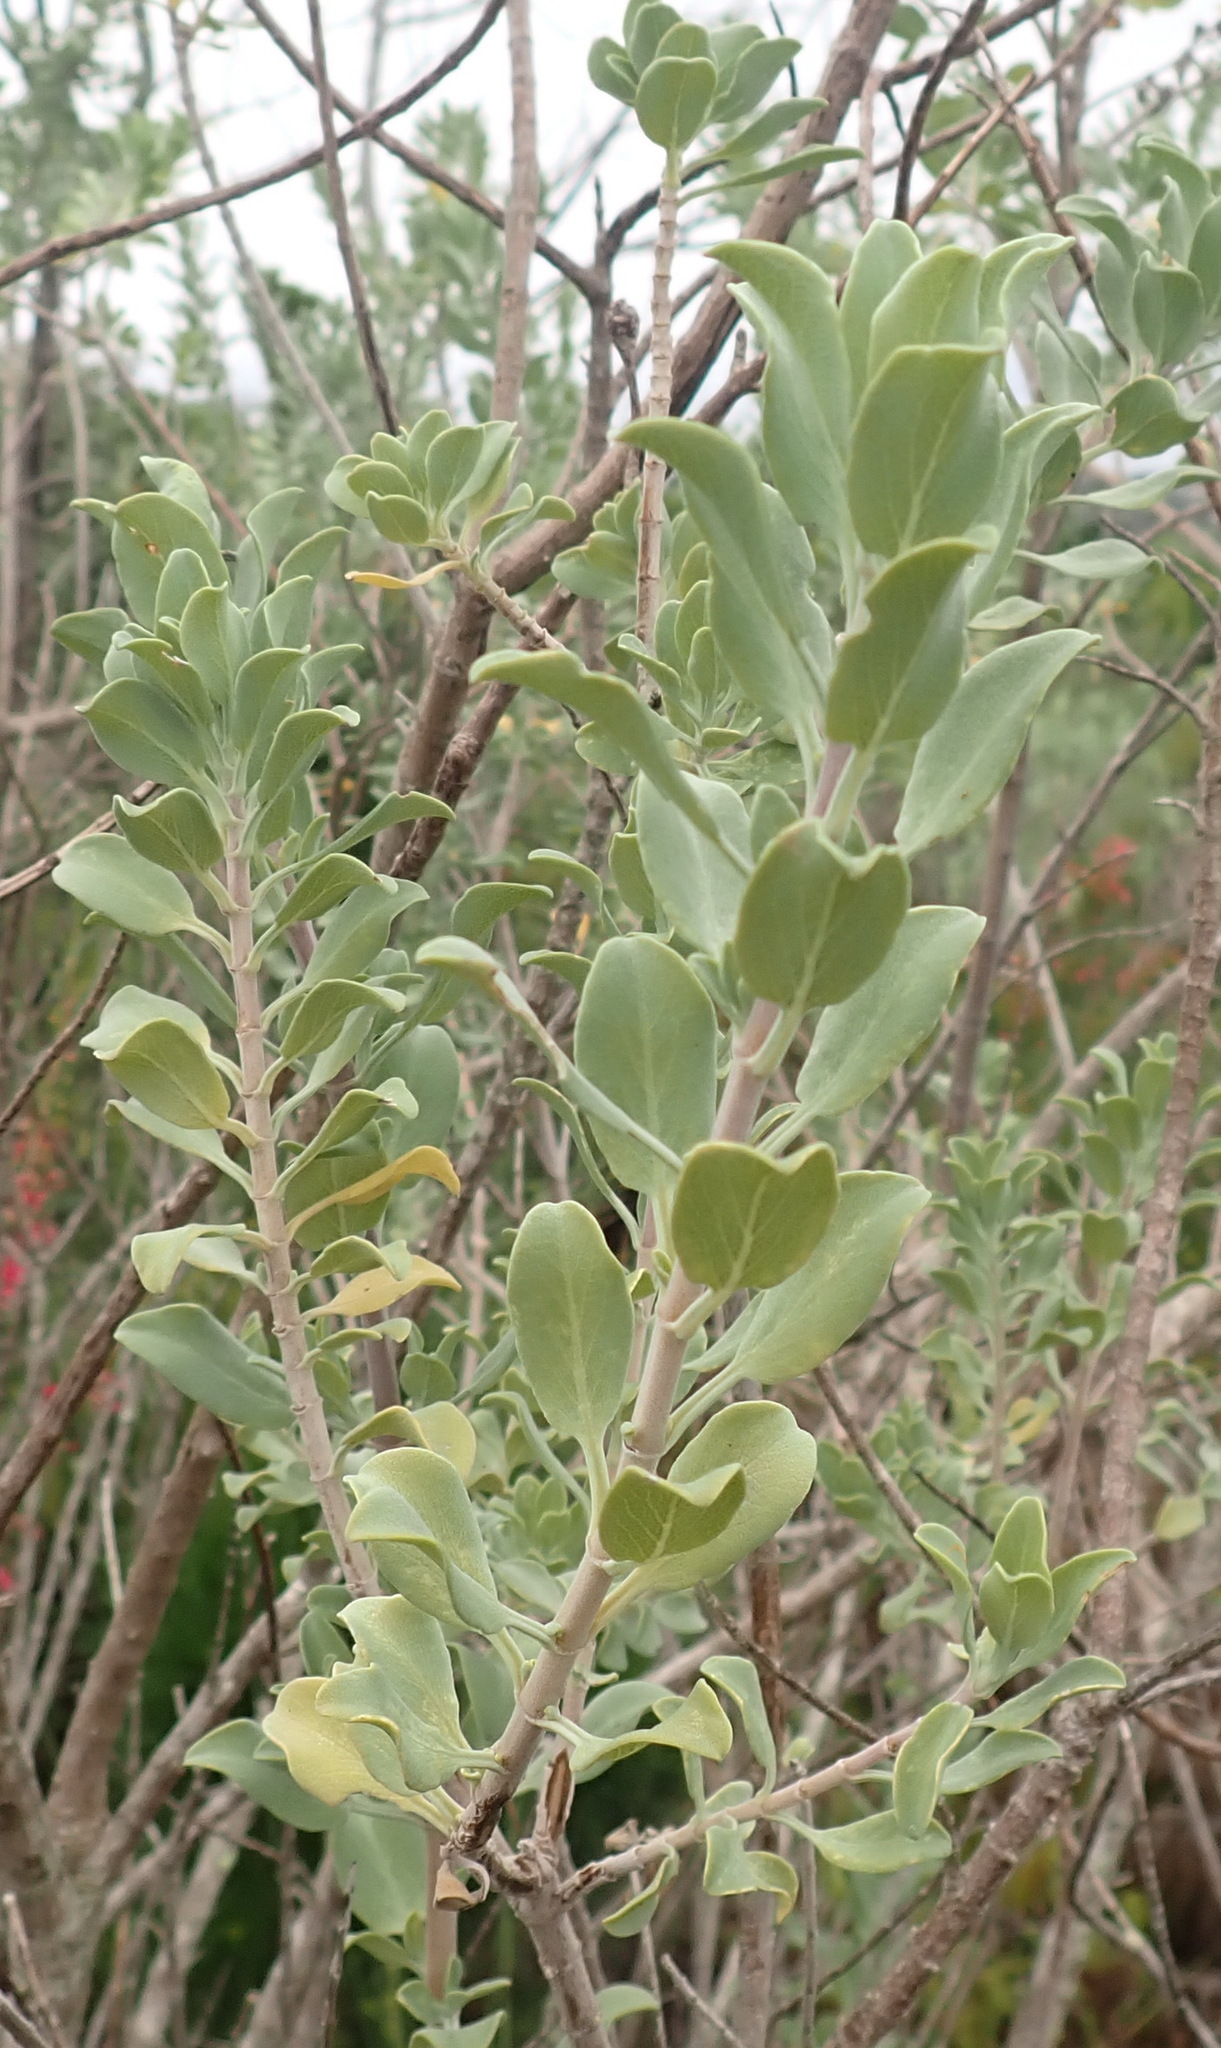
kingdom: Plantae
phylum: Tracheophyta
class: Magnoliopsida
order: Lamiales
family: Lamiaceae
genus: Salvia
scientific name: Salvia aurea
